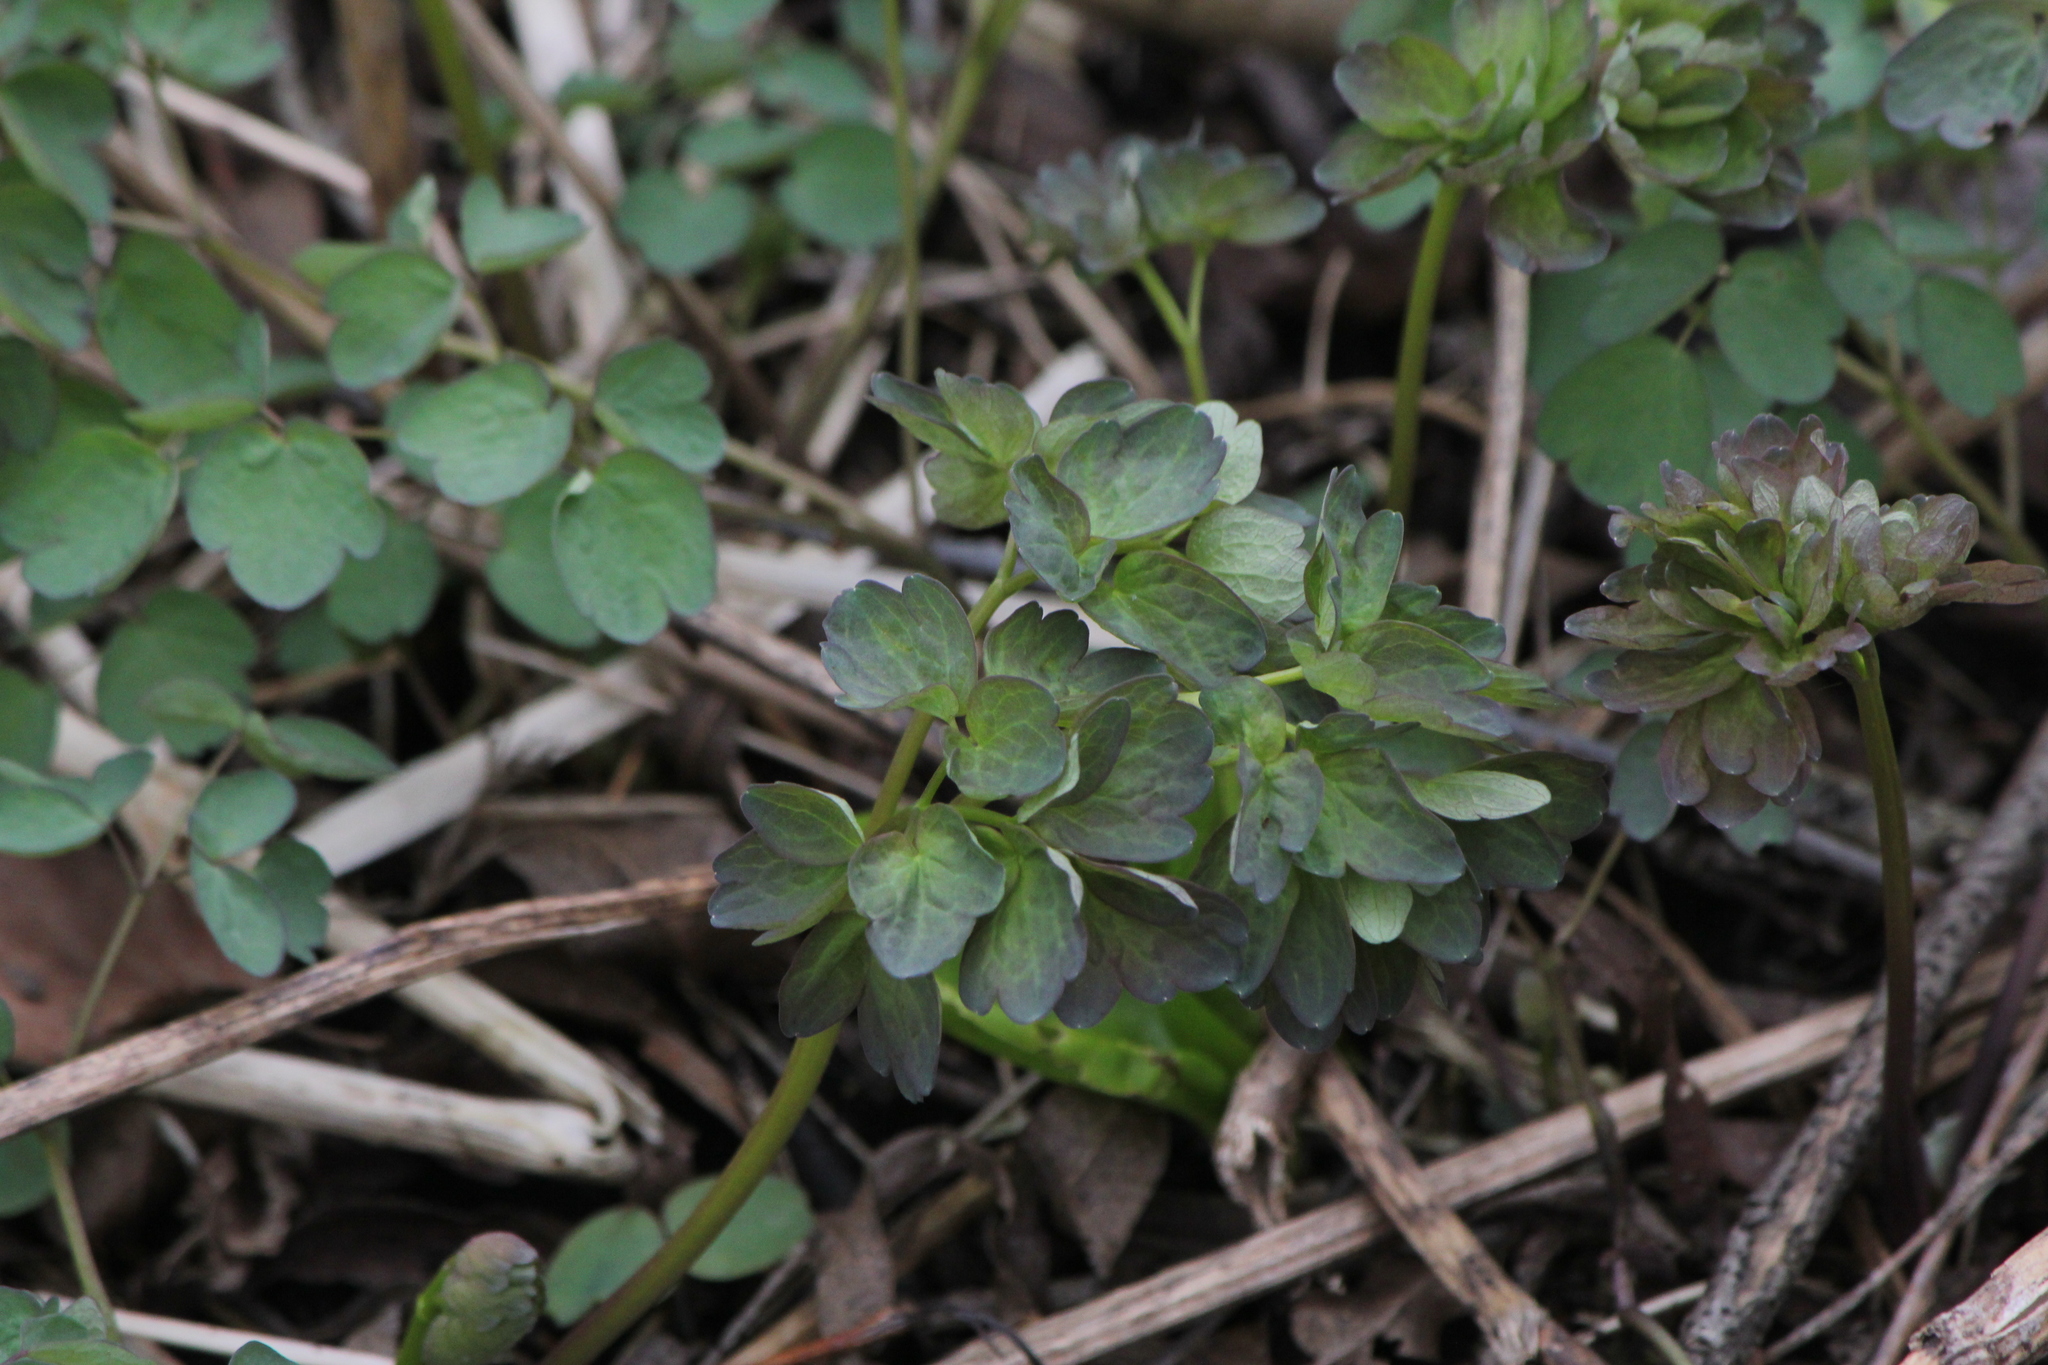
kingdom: Plantae
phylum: Tracheophyta
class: Magnoliopsida
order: Ranunculales
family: Ranunculaceae
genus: Thalictrum
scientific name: Thalictrum dioicum
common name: Early meadow-rue
